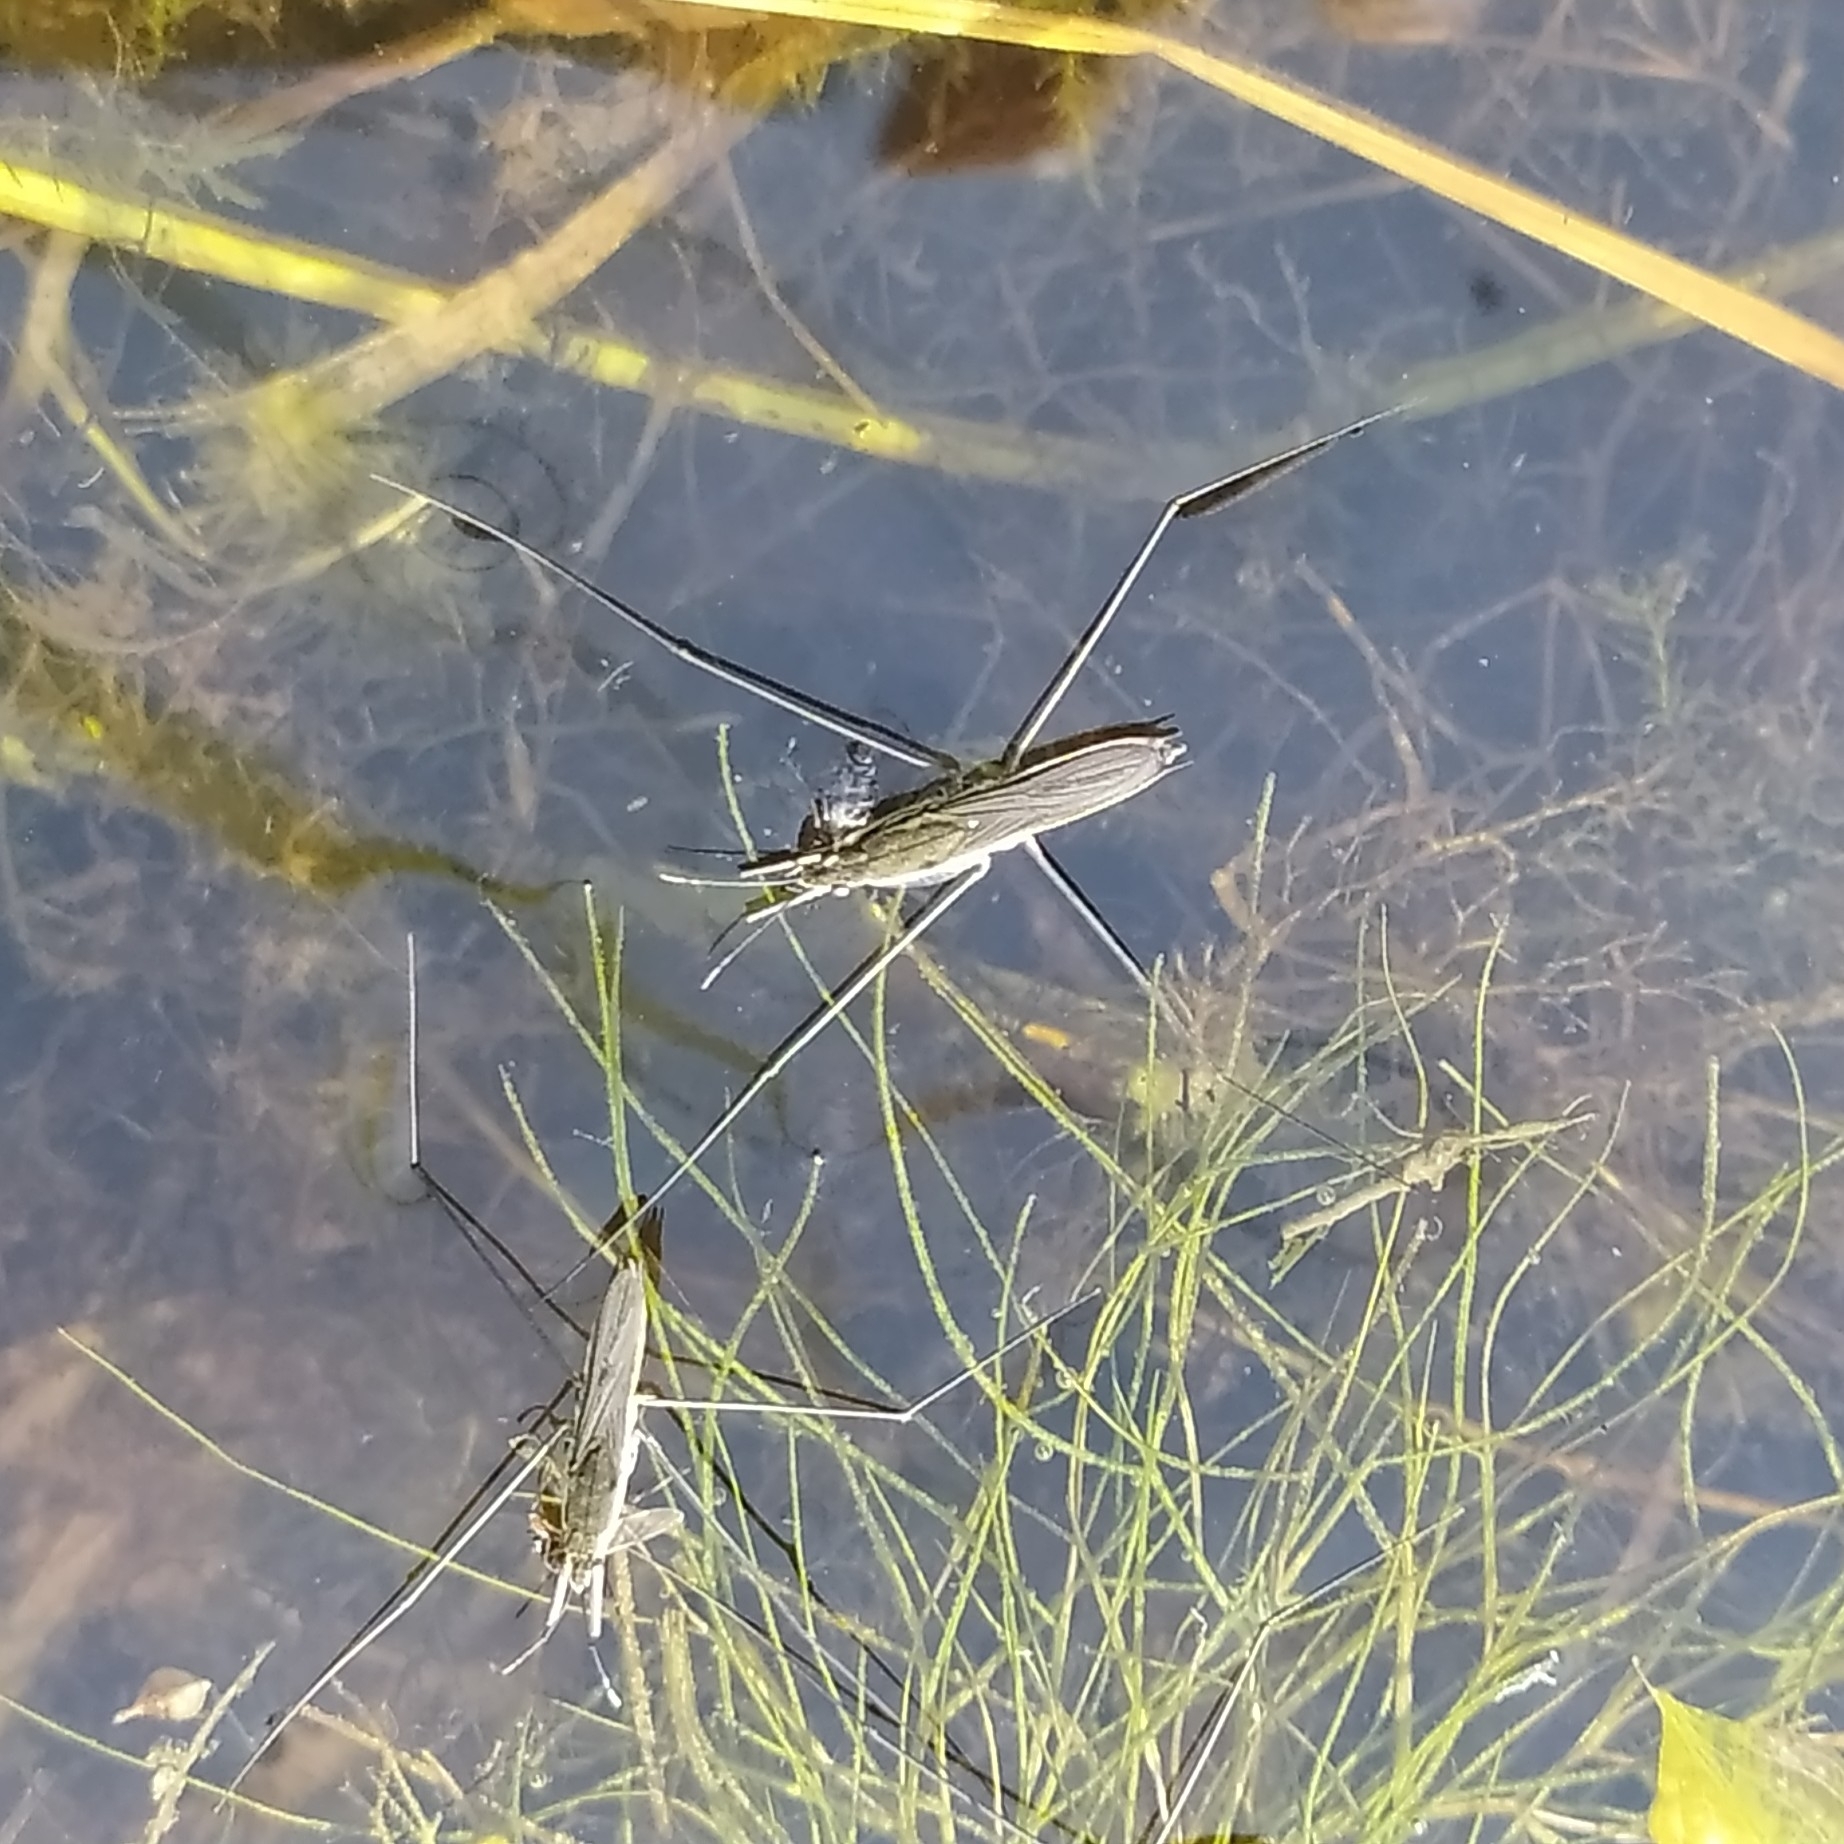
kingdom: Animalia
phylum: Arthropoda
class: Insecta
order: Hemiptera
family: Gerridae
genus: Aquarius
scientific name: Aquarius paludum
